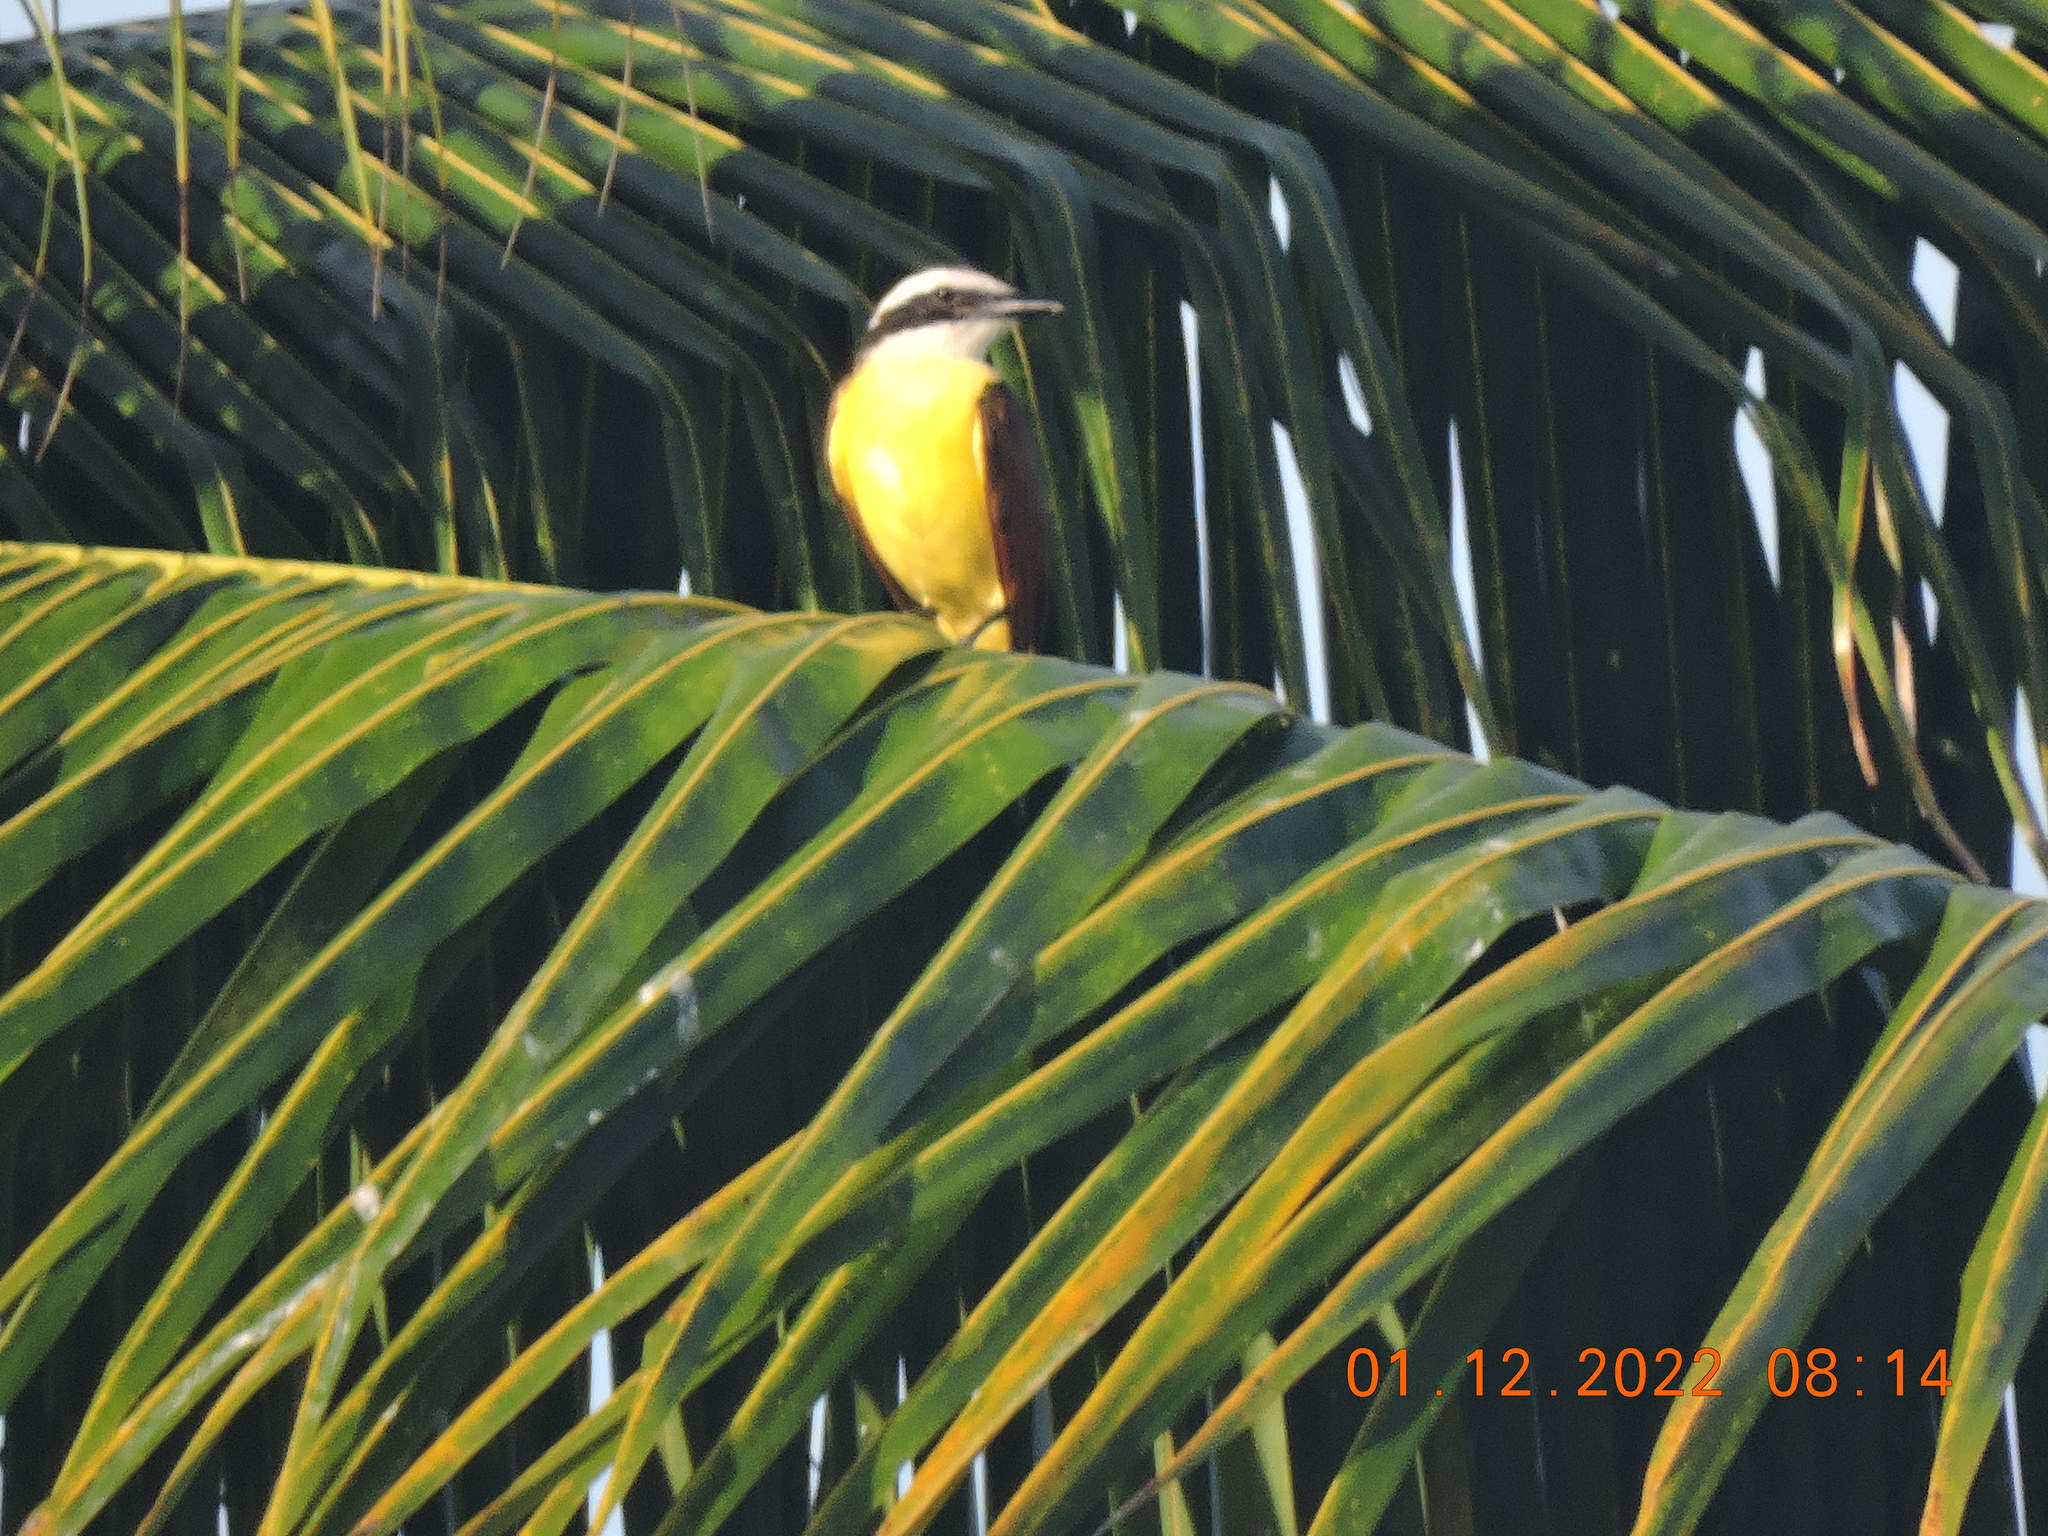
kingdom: Animalia
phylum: Chordata
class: Aves
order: Passeriformes
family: Tyrannidae
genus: Pitangus
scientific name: Pitangus sulphuratus
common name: Great kiskadee
